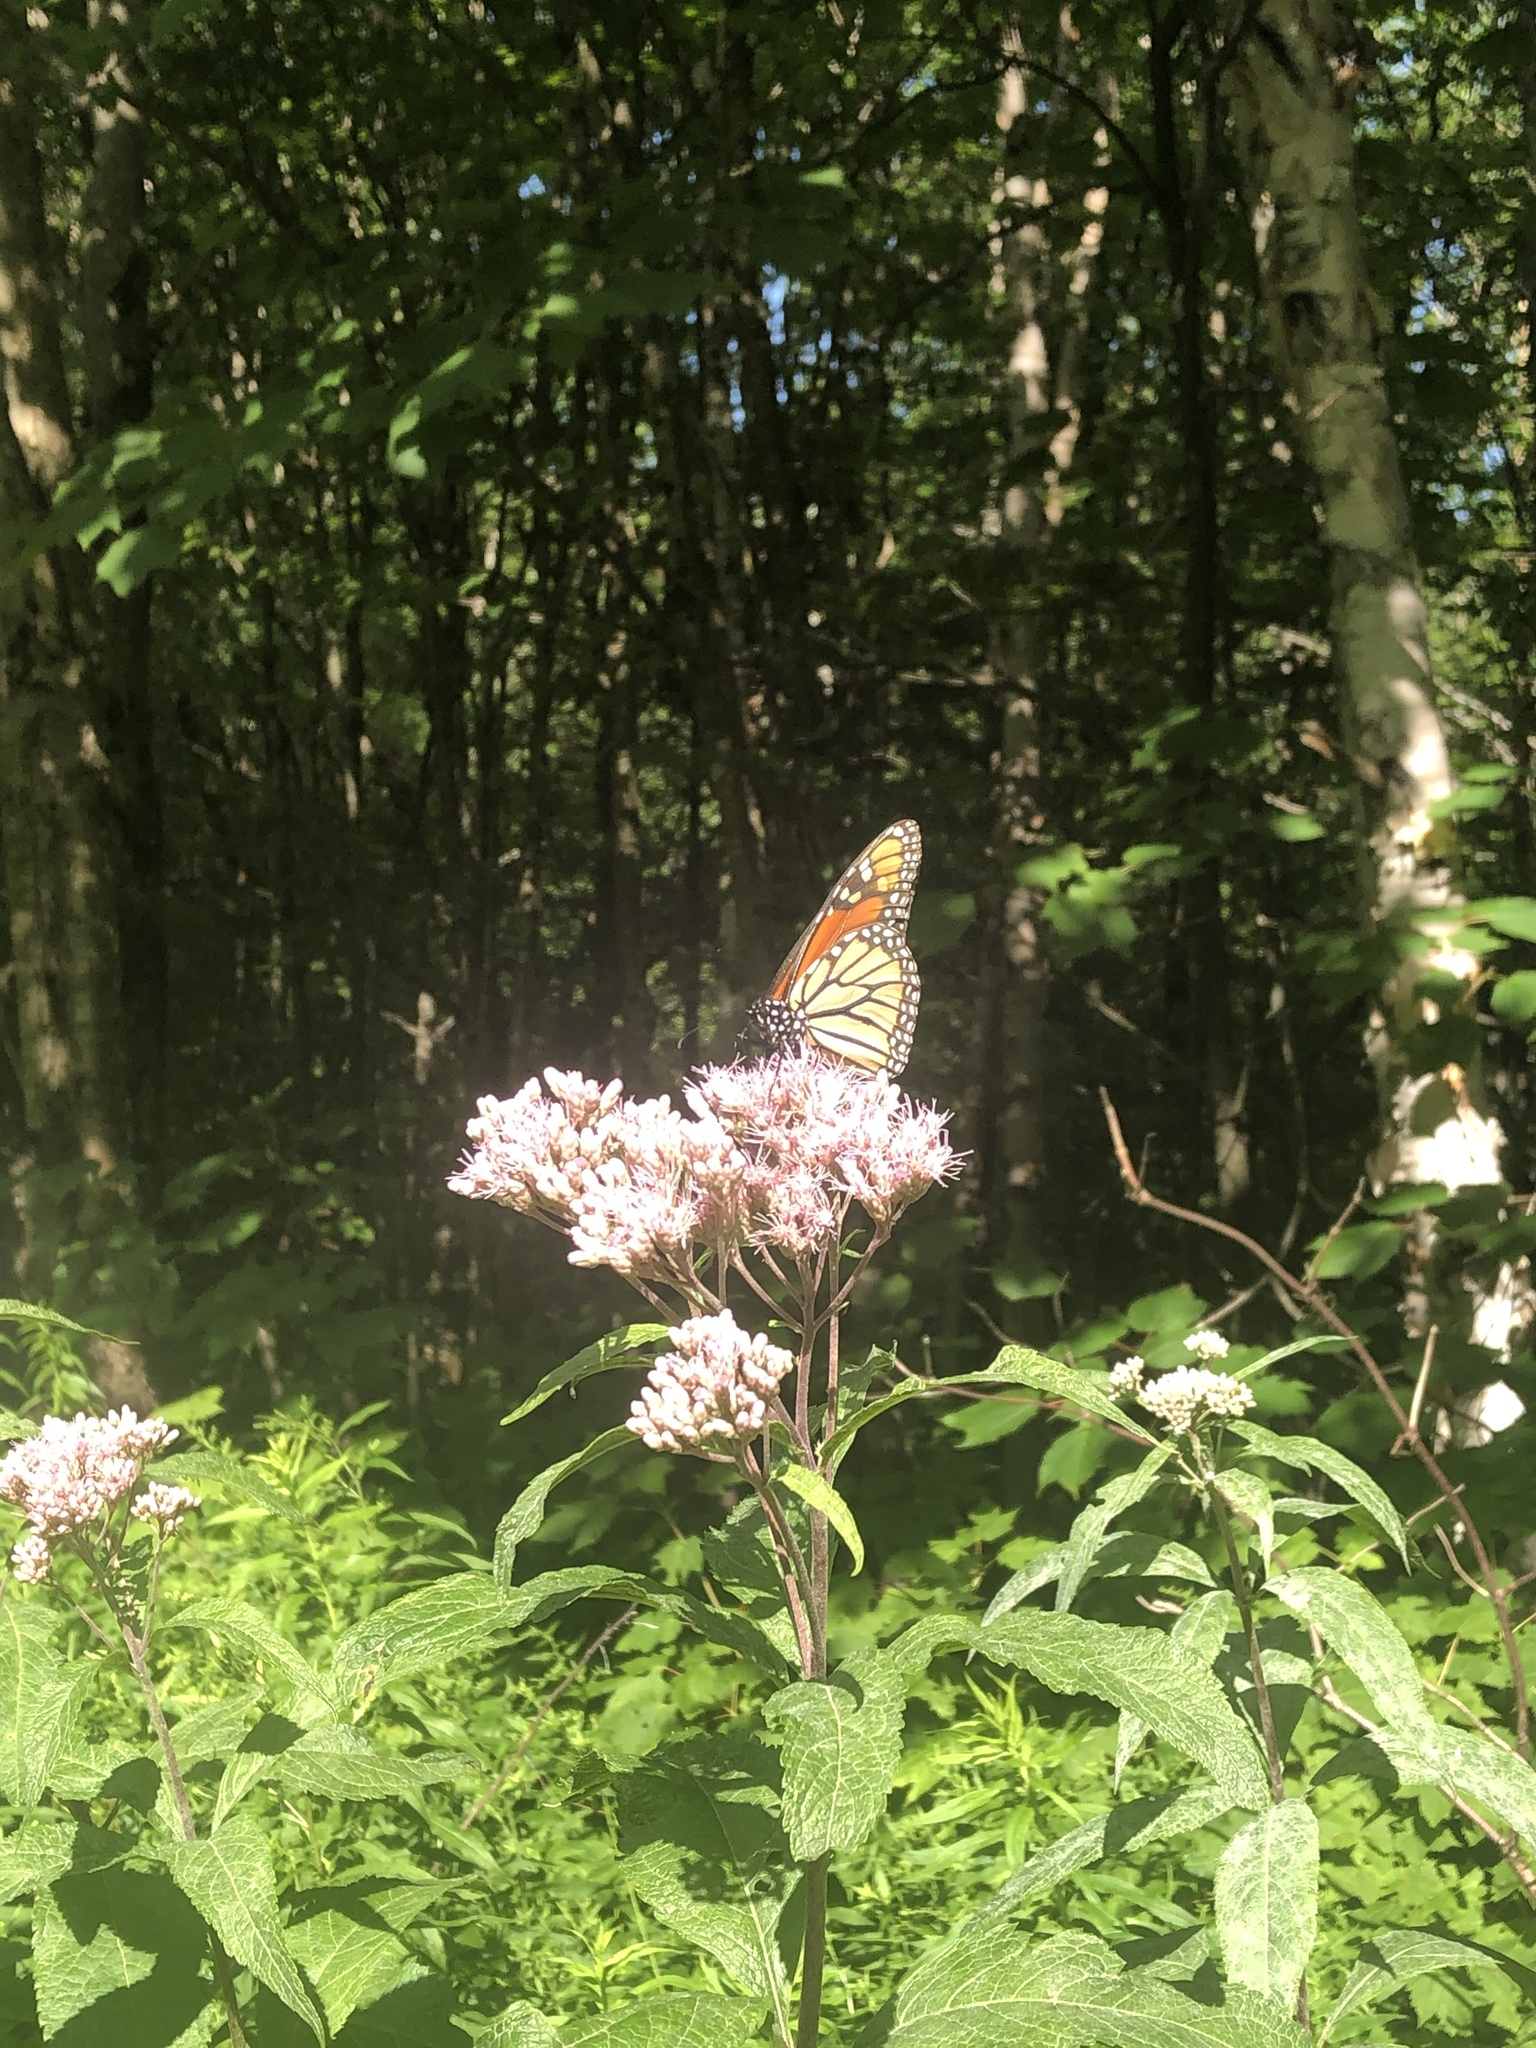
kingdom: Animalia
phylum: Arthropoda
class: Insecta
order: Lepidoptera
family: Nymphalidae
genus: Danaus
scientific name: Danaus plexippus
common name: Monarch
